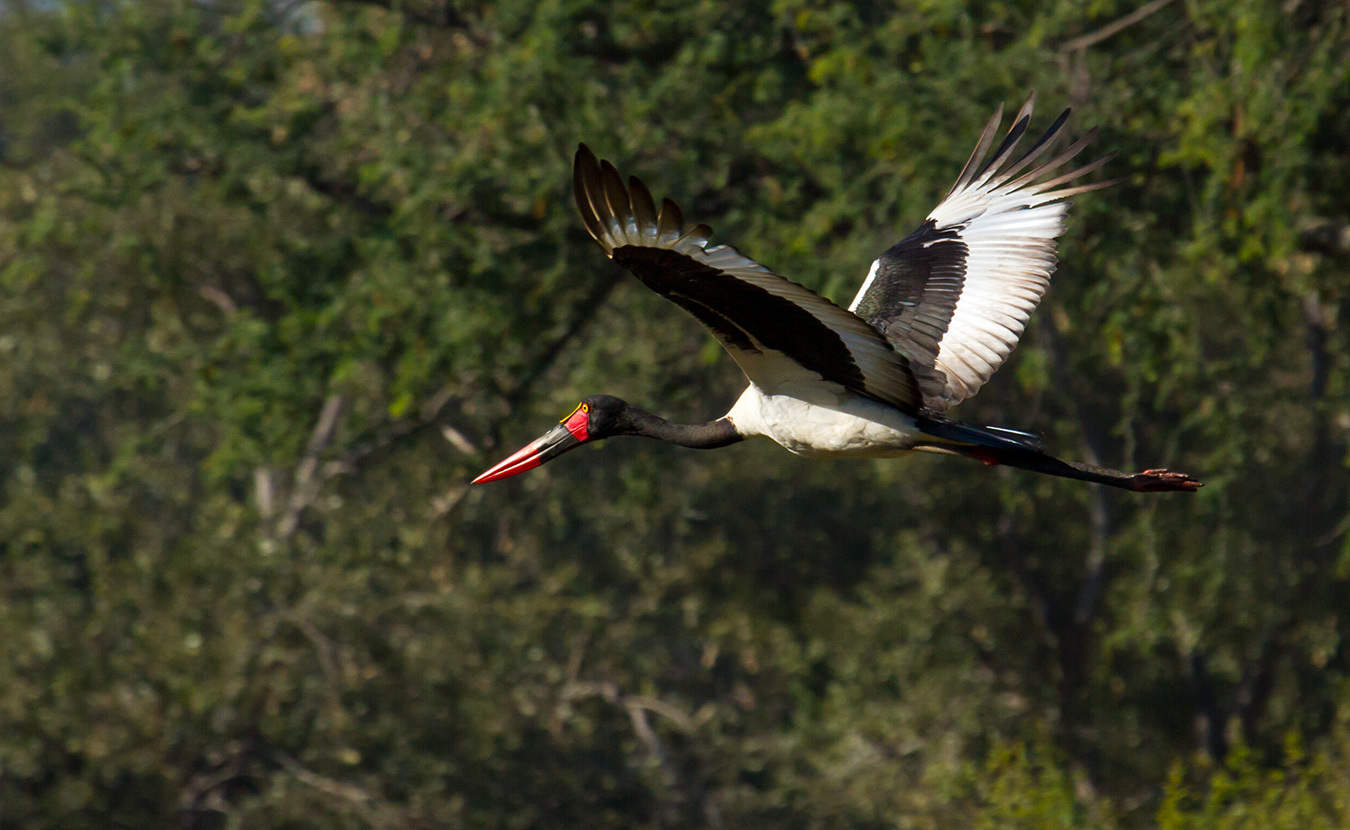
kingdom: Animalia
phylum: Chordata
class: Aves
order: Ciconiiformes
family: Ciconiidae
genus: Ephippiorhynchus
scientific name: Ephippiorhynchus senegalensis
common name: Saddle-billed stork
